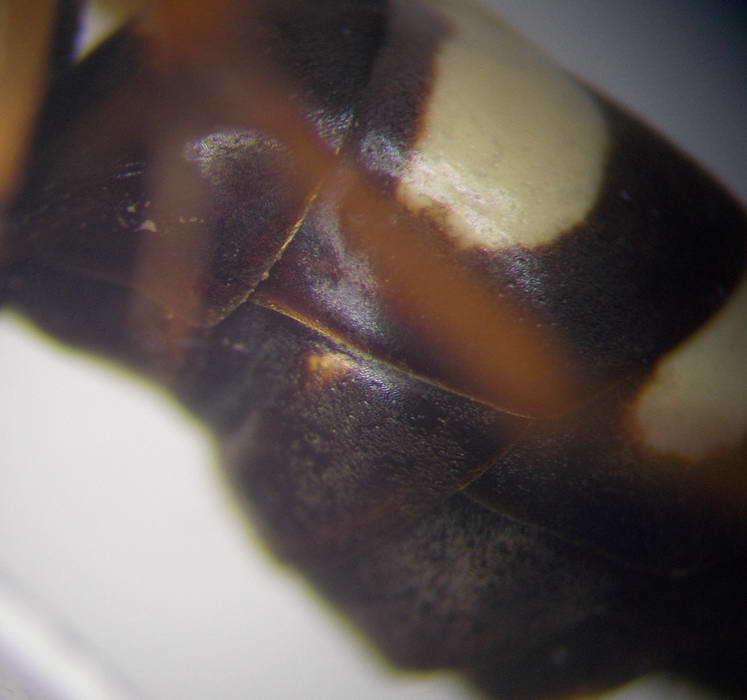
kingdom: Animalia
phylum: Arthropoda
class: Insecta
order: Hymenoptera
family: Pompilidae
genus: Cryptocheilus
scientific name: Cryptocheilus variabilis
